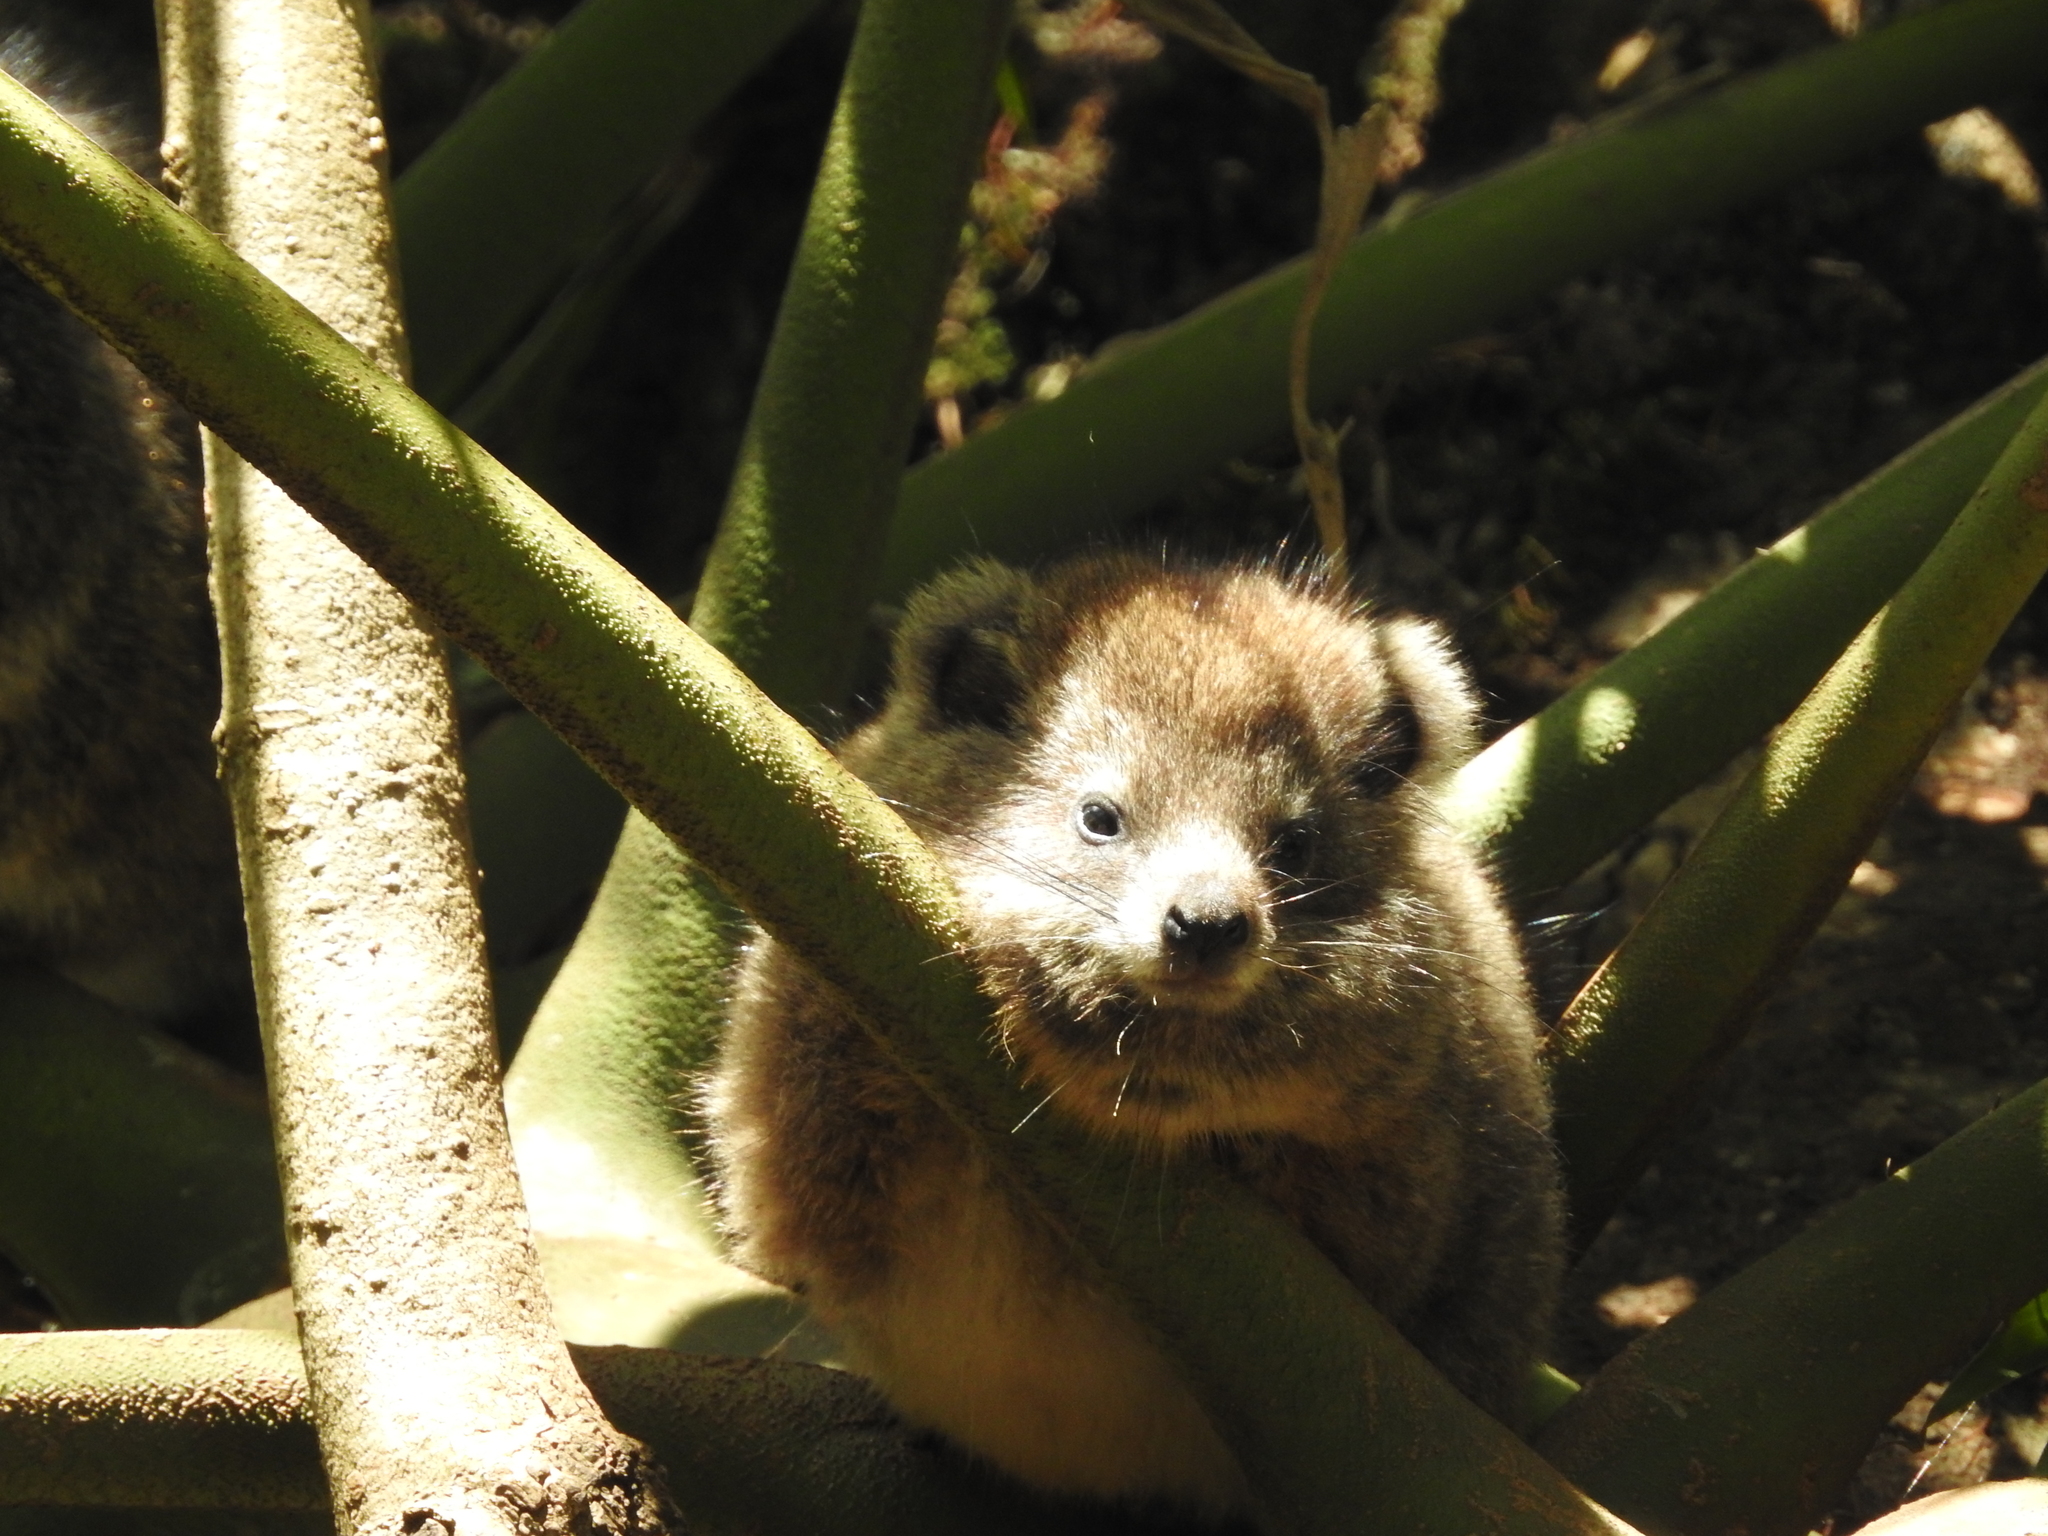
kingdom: Animalia
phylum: Chordata
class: Mammalia
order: Hyracoidea
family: Procaviidae
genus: Dendrohyrax
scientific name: Dendrohyrax arboreus
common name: Southern tree hyrax
